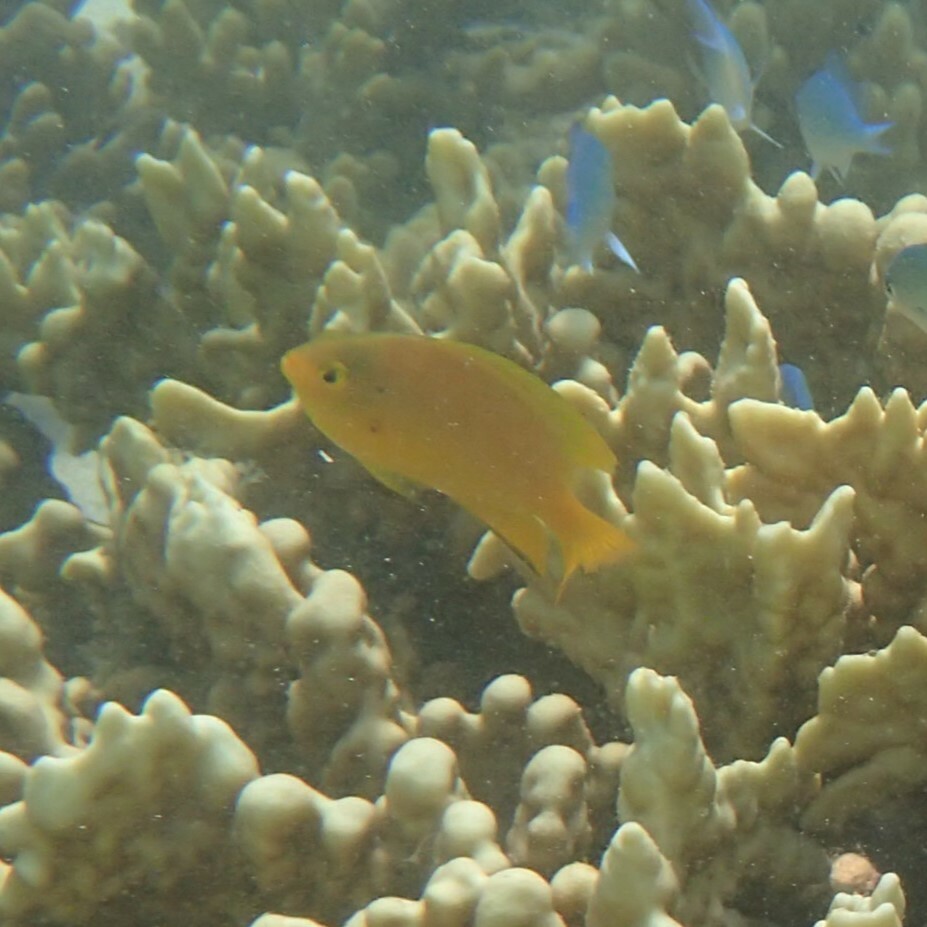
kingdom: Animalia
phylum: Chordata
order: Perciformes
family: Pomacentridae
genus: Pomacentrus
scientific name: Pomacentrus moluccensis
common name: Lemon damsel
